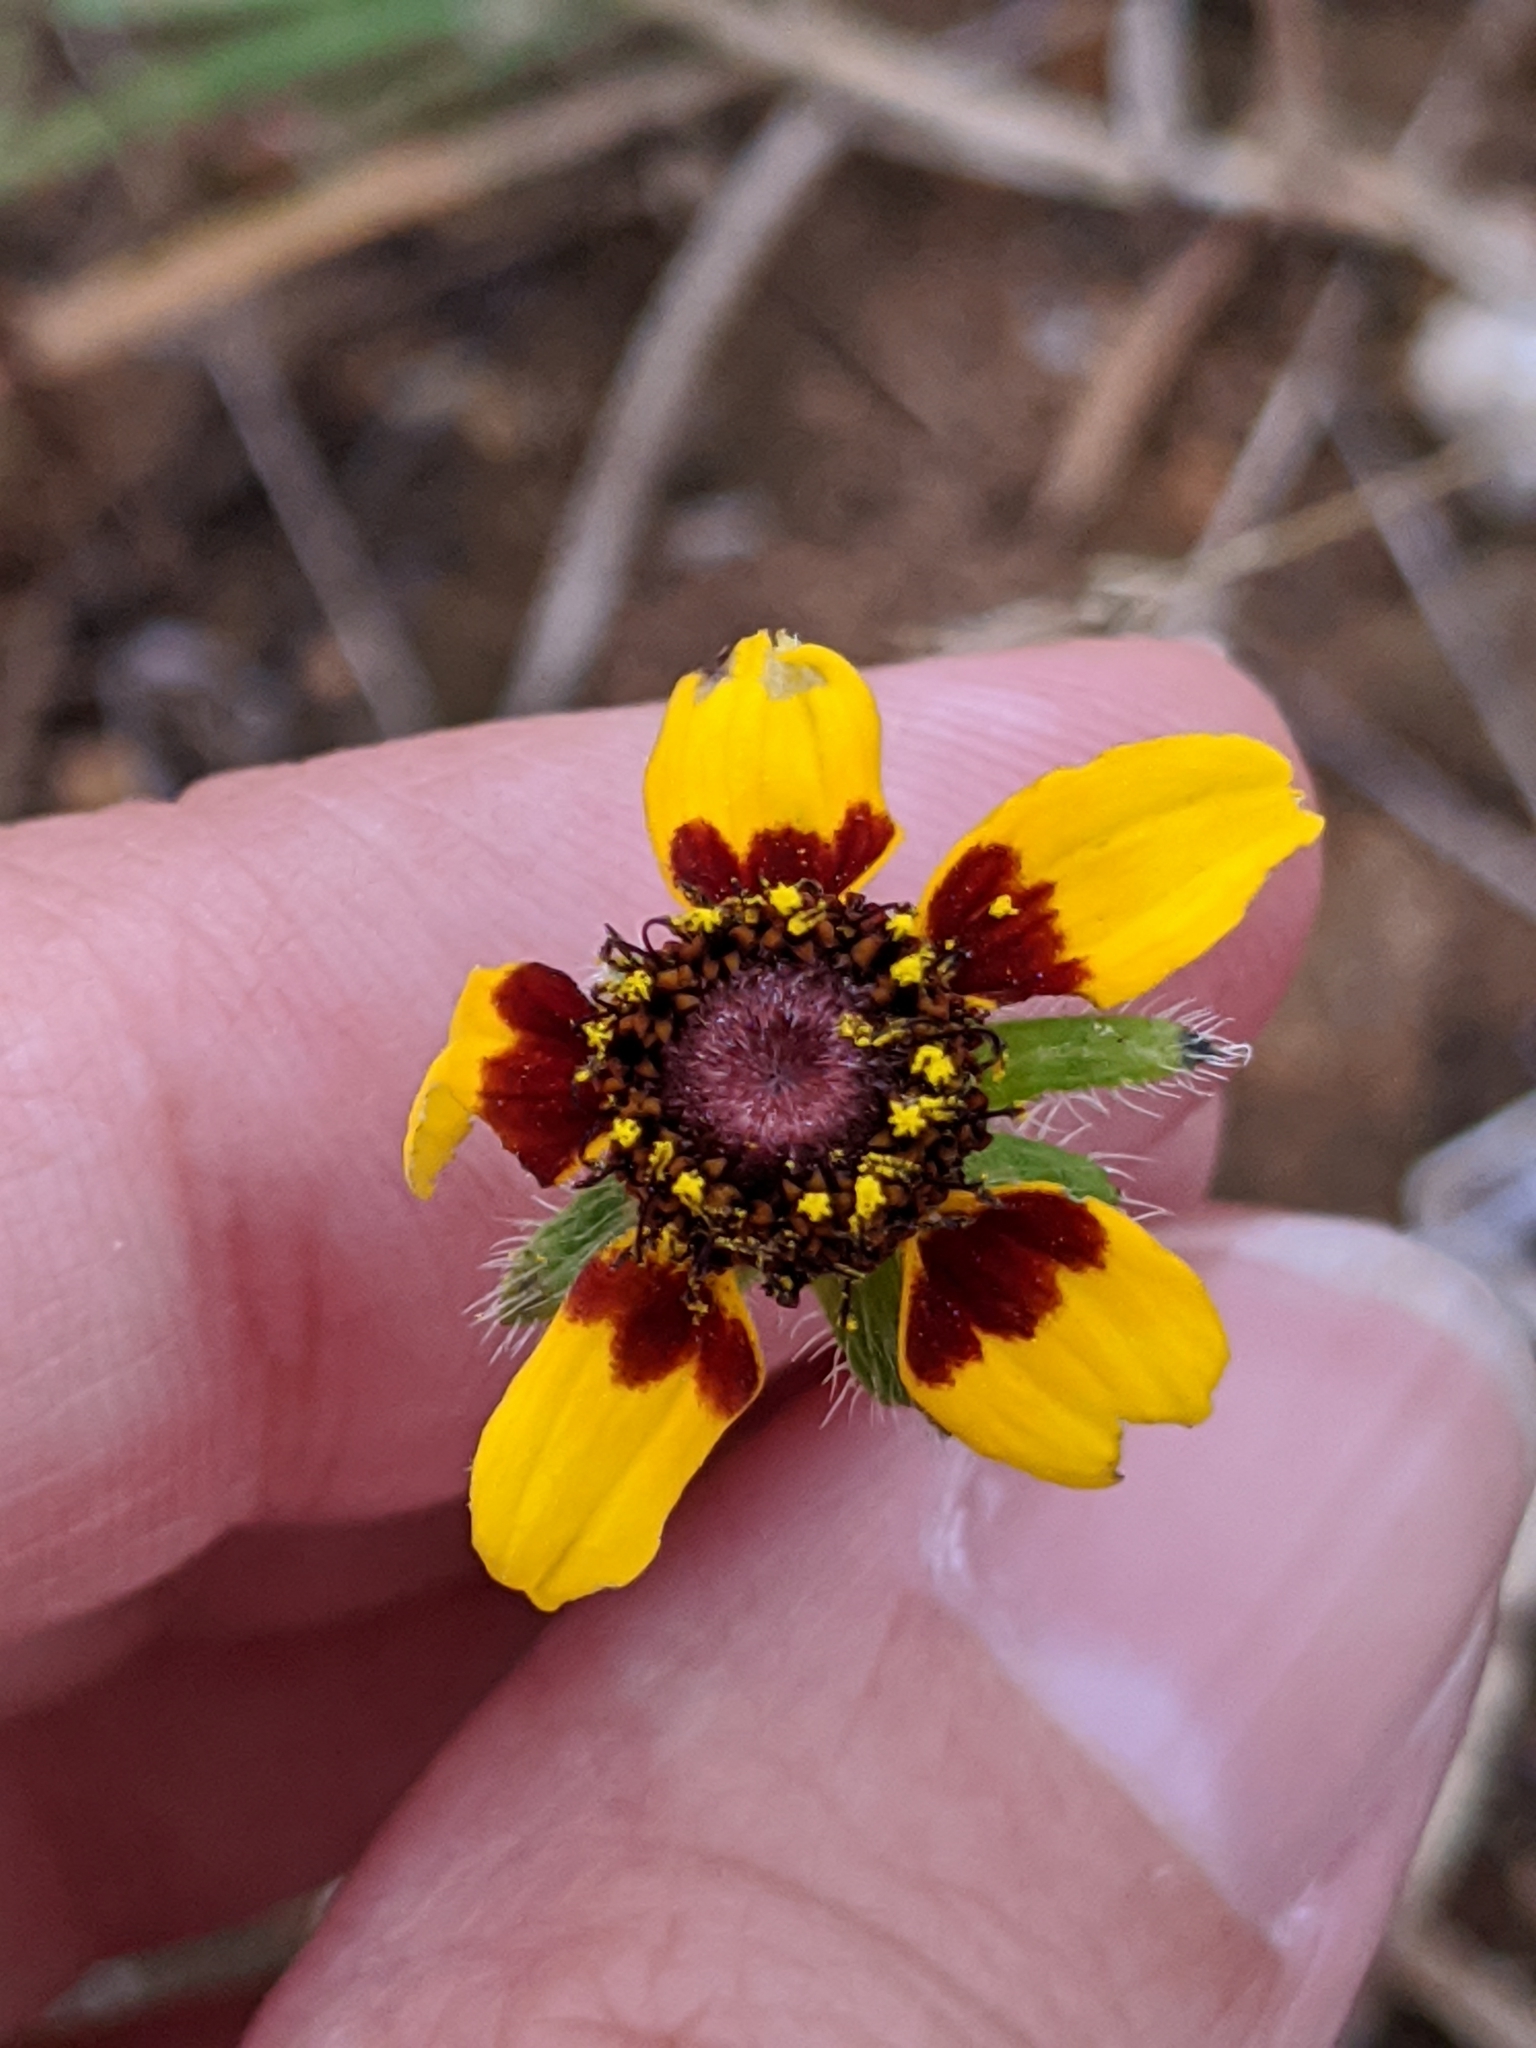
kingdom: Plantae
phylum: Tracheophyta
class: Magnoliopsida
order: Asterales
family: Asteraceae
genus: Rudbeckia
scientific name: Rudbeckia hirta
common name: Black-eyed-susan
